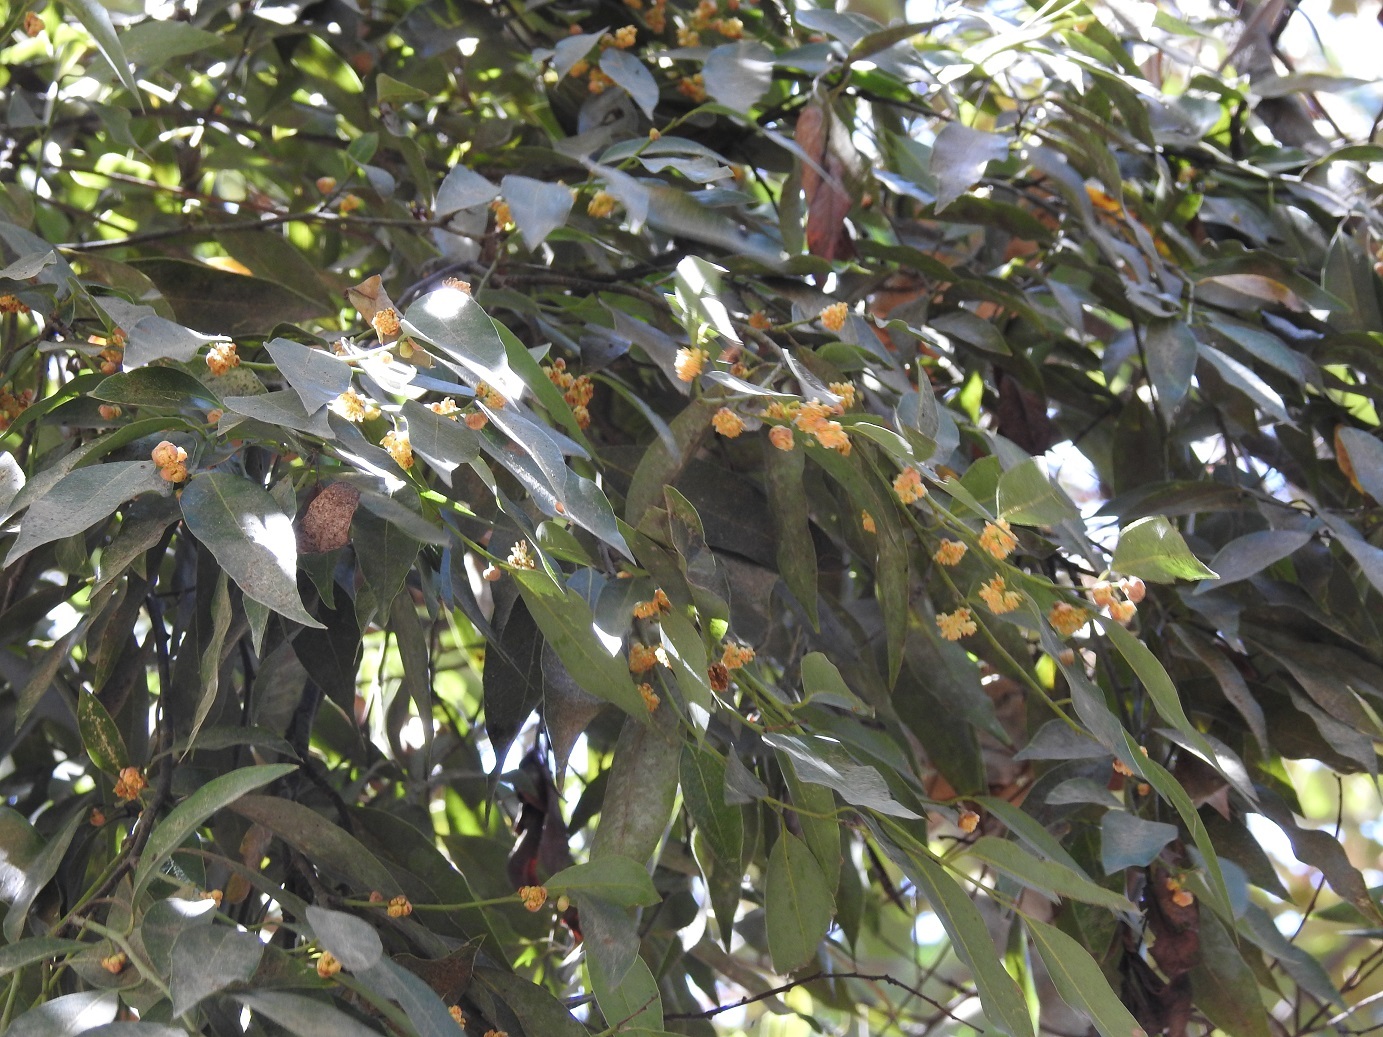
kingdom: Plantae
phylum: Tracheophyta
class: Magnoliopsida
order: Laurales
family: Lauraceae
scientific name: Lauraceae
